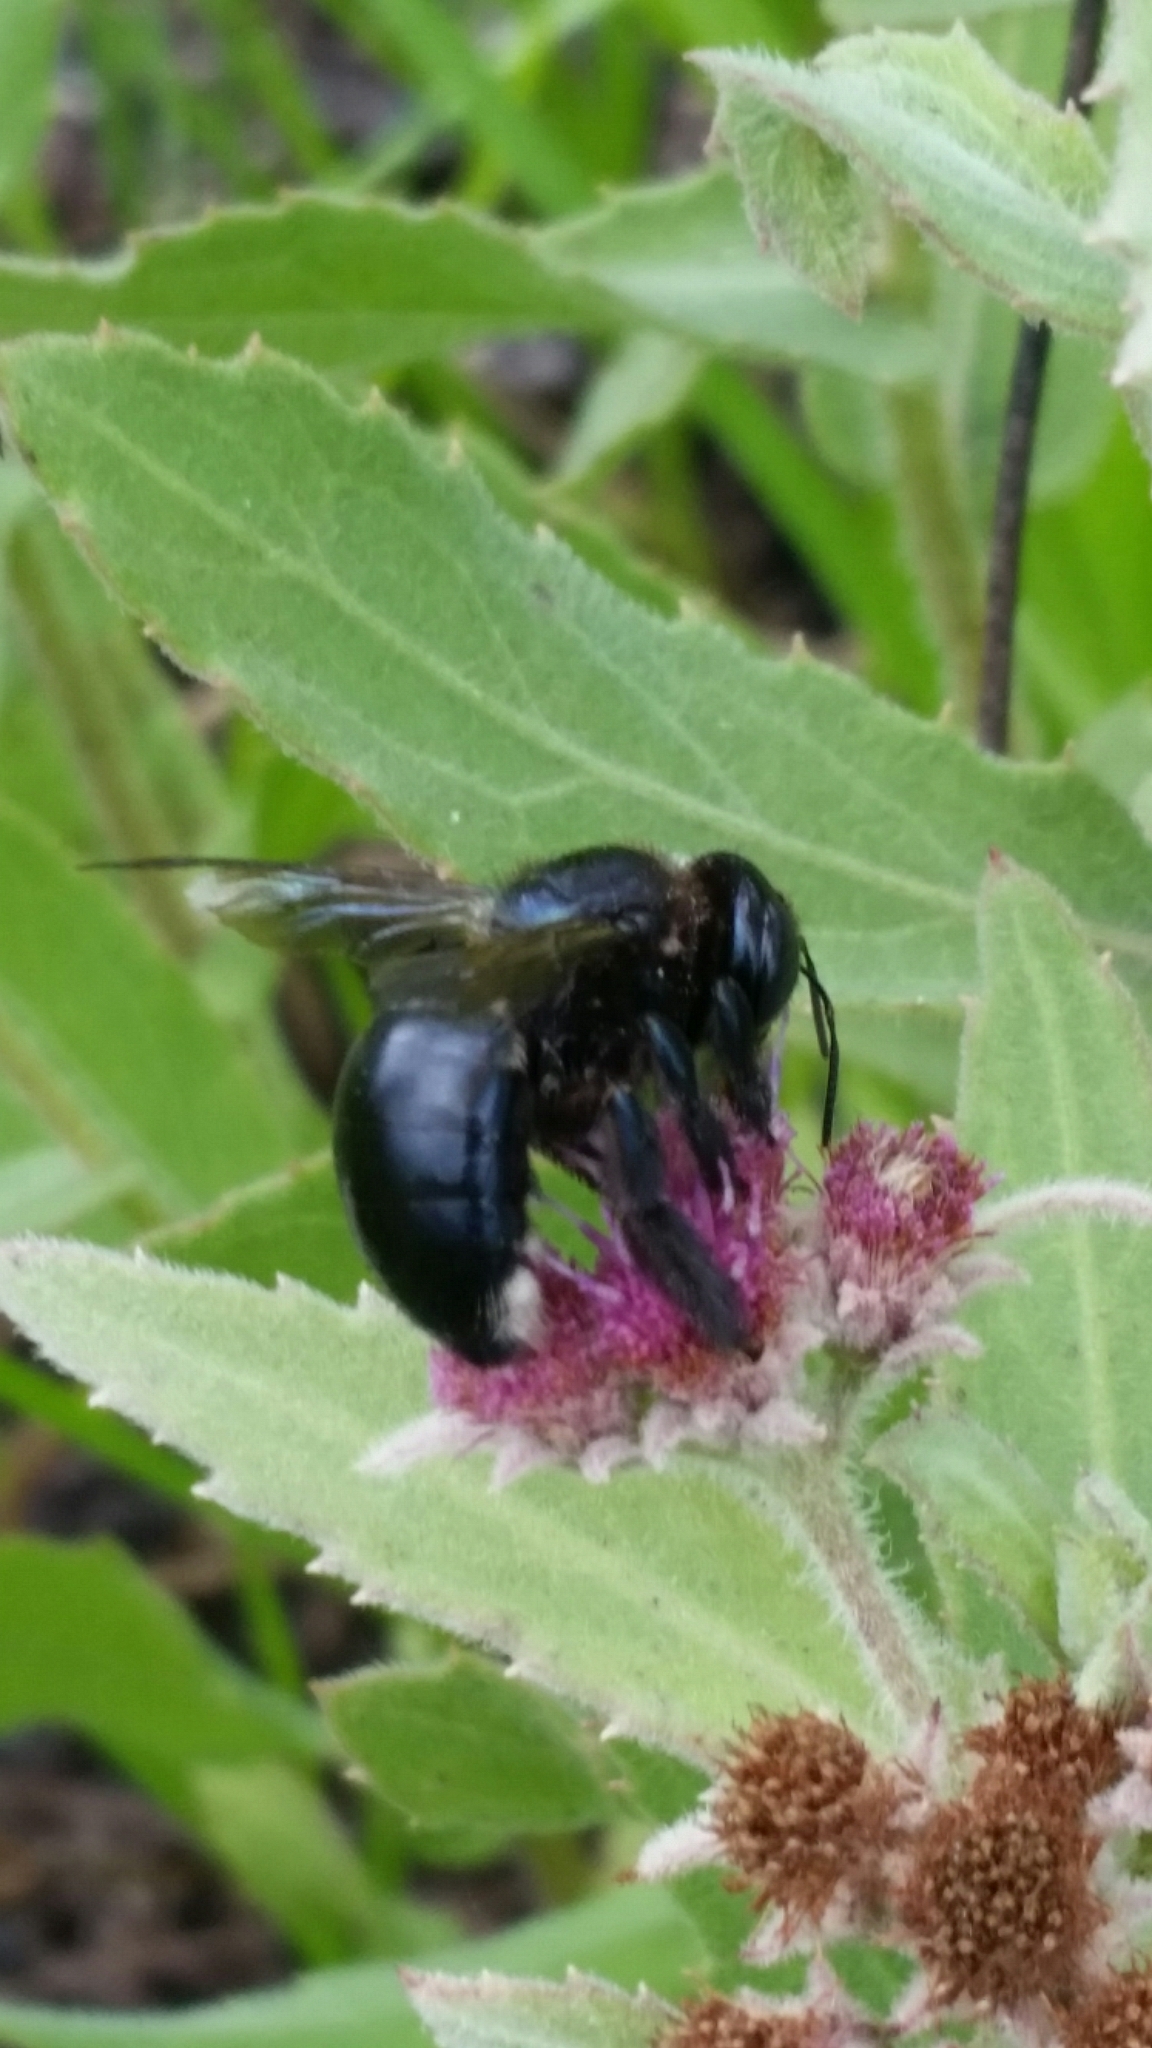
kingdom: Animalia
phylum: Arthropoda
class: Insecta
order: Hymenoptera
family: Apidae
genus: Xylocopa
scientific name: Xylocopa micans
